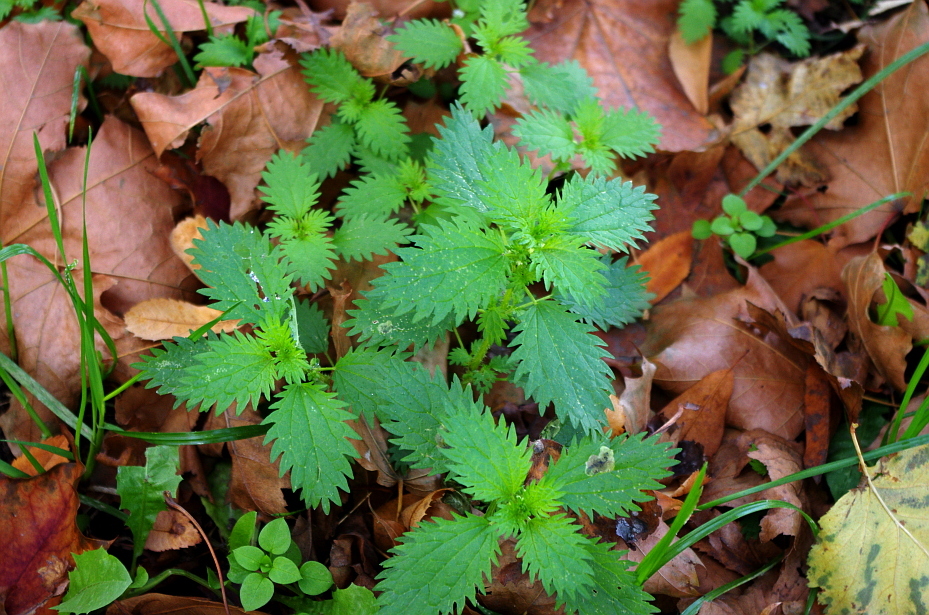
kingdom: Plantae
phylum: Tracheophyta
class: Magnoliopsida
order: Rosales
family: Urticaceae
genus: Urtica
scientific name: Urtica urens
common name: Dwarf nettle
